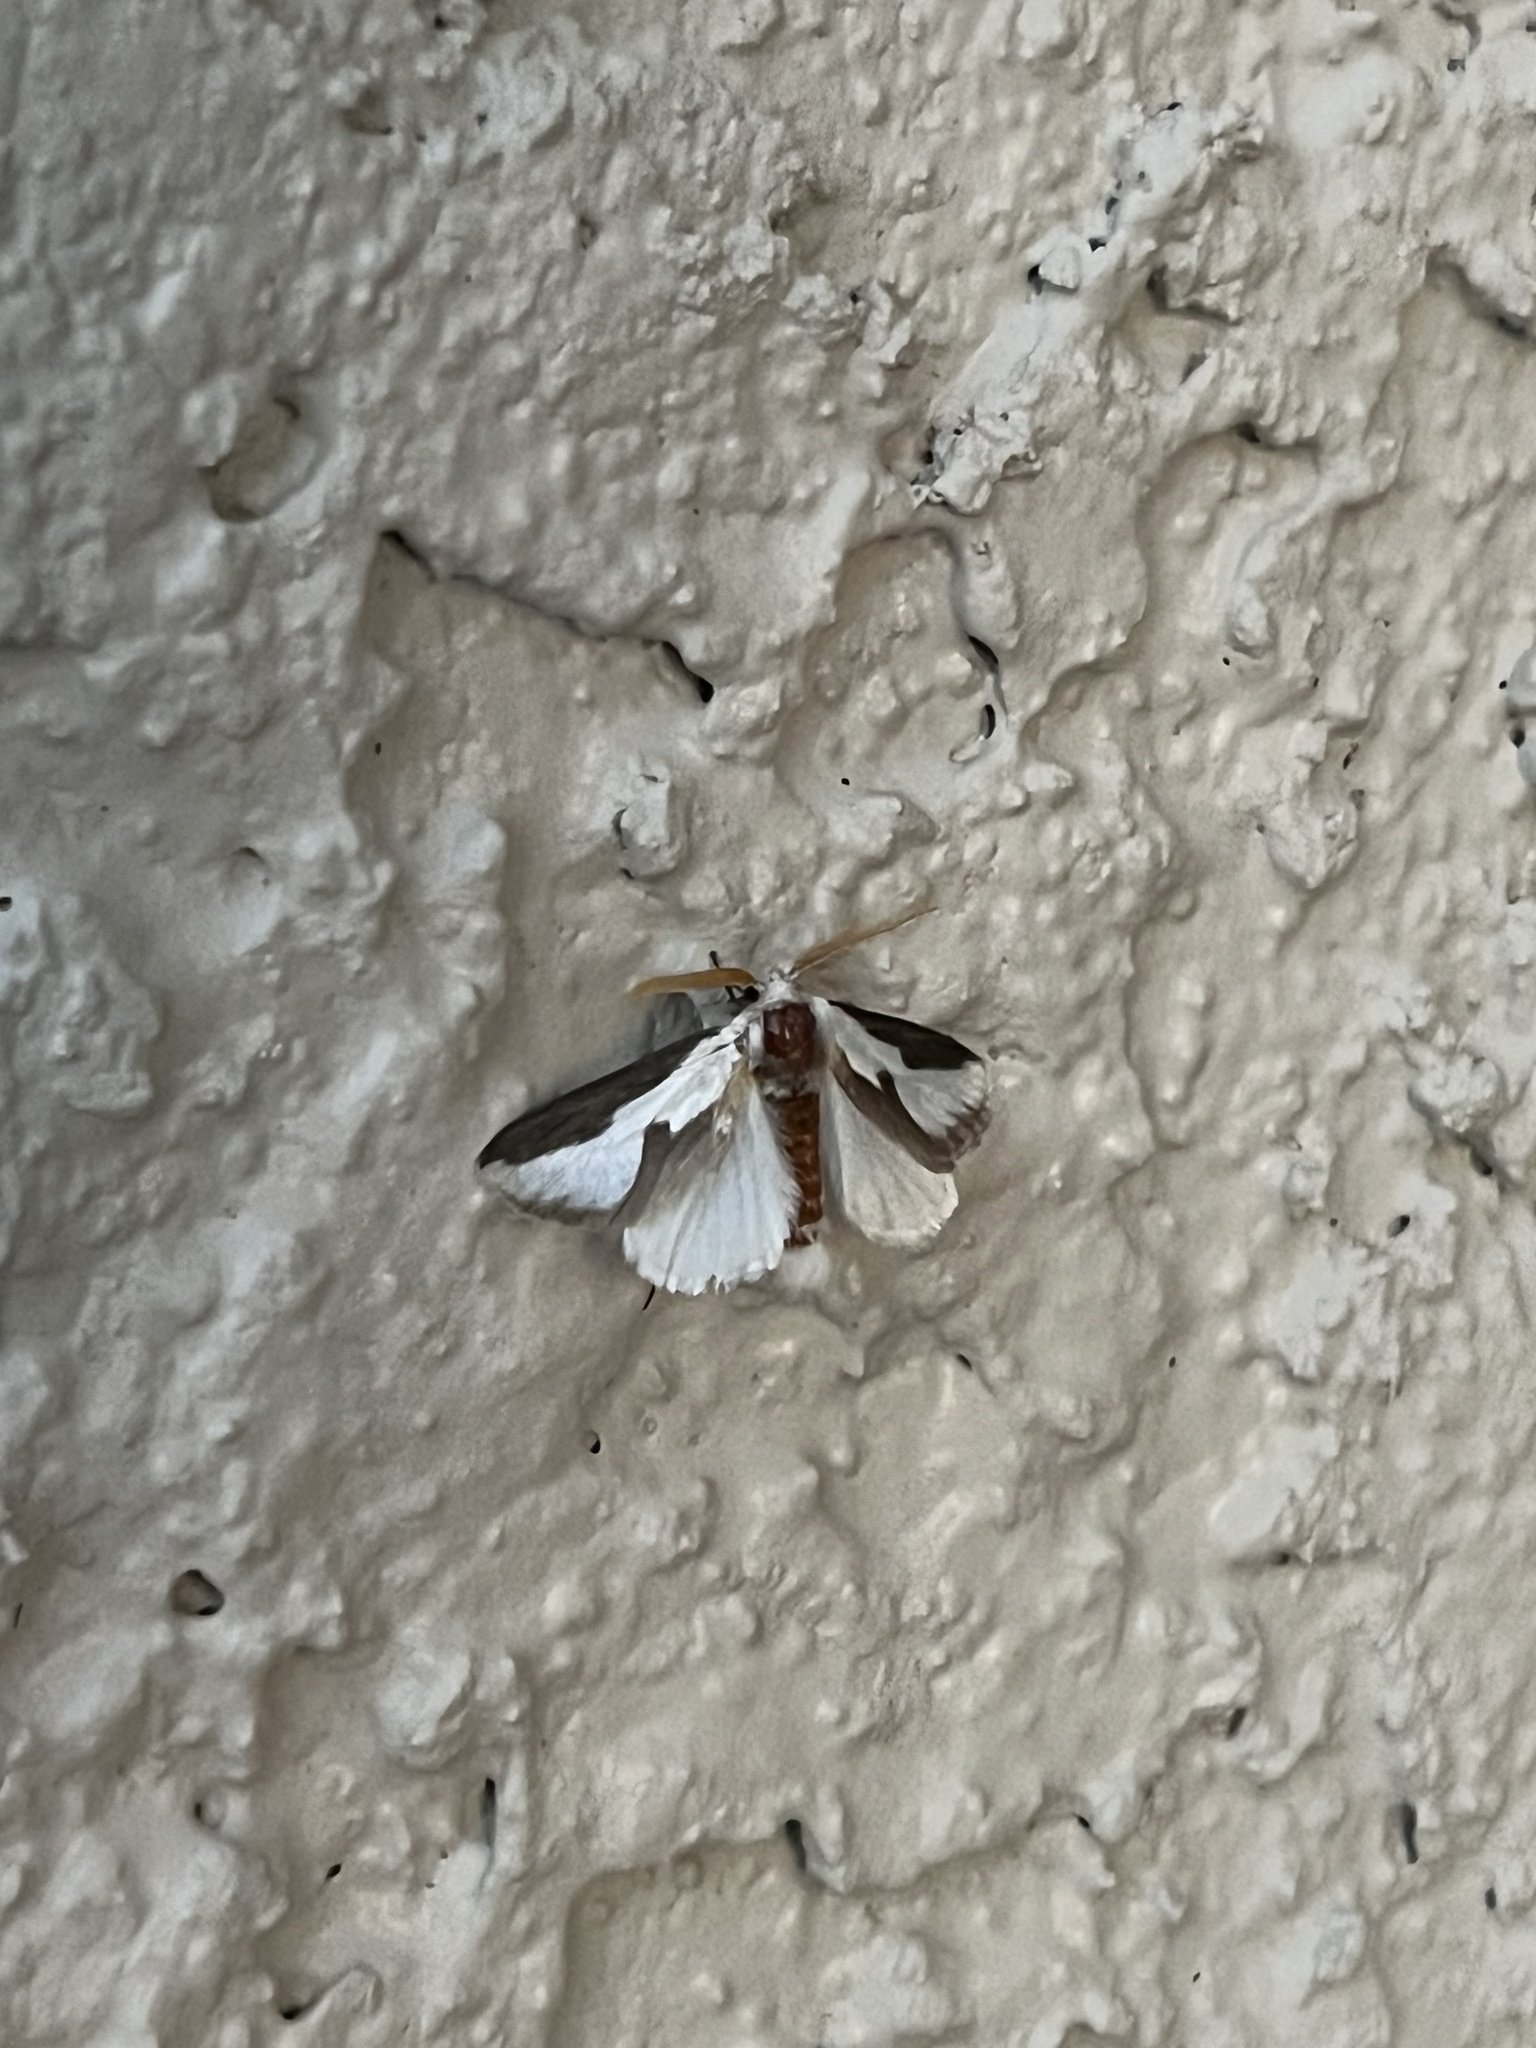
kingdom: Animalia
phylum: Arthropoda
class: Insecta
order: Lepidoptera
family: Megalopygidae
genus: Norape
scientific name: Norape tener
